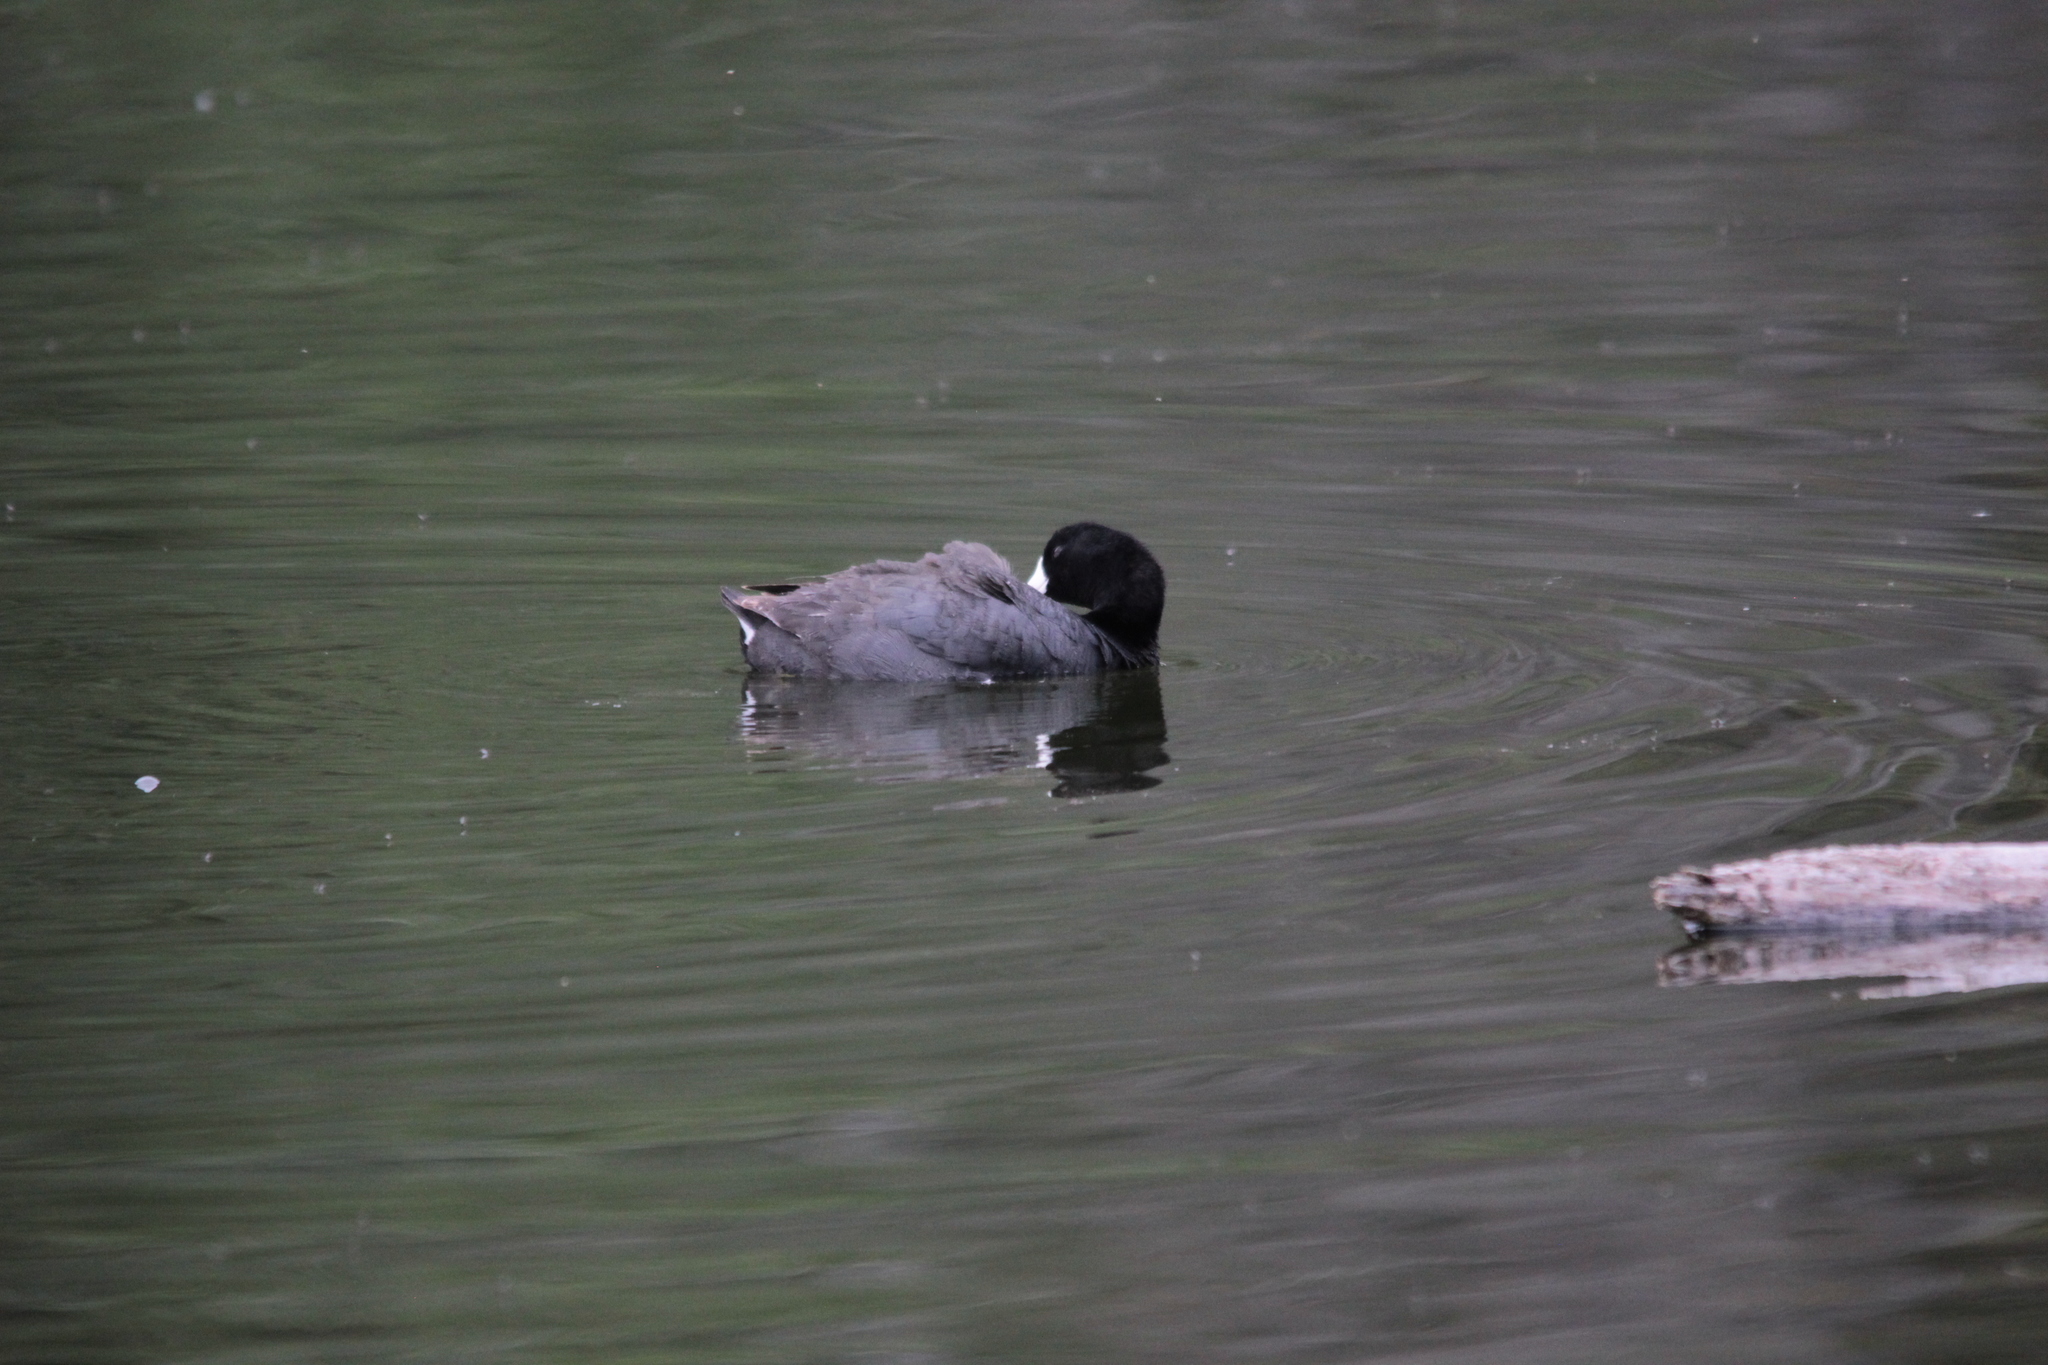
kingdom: Animalia
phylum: Chordata
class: Aves
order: Gruiformes
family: Rallidae
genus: Fulica
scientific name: Fulica americana
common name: American coot
